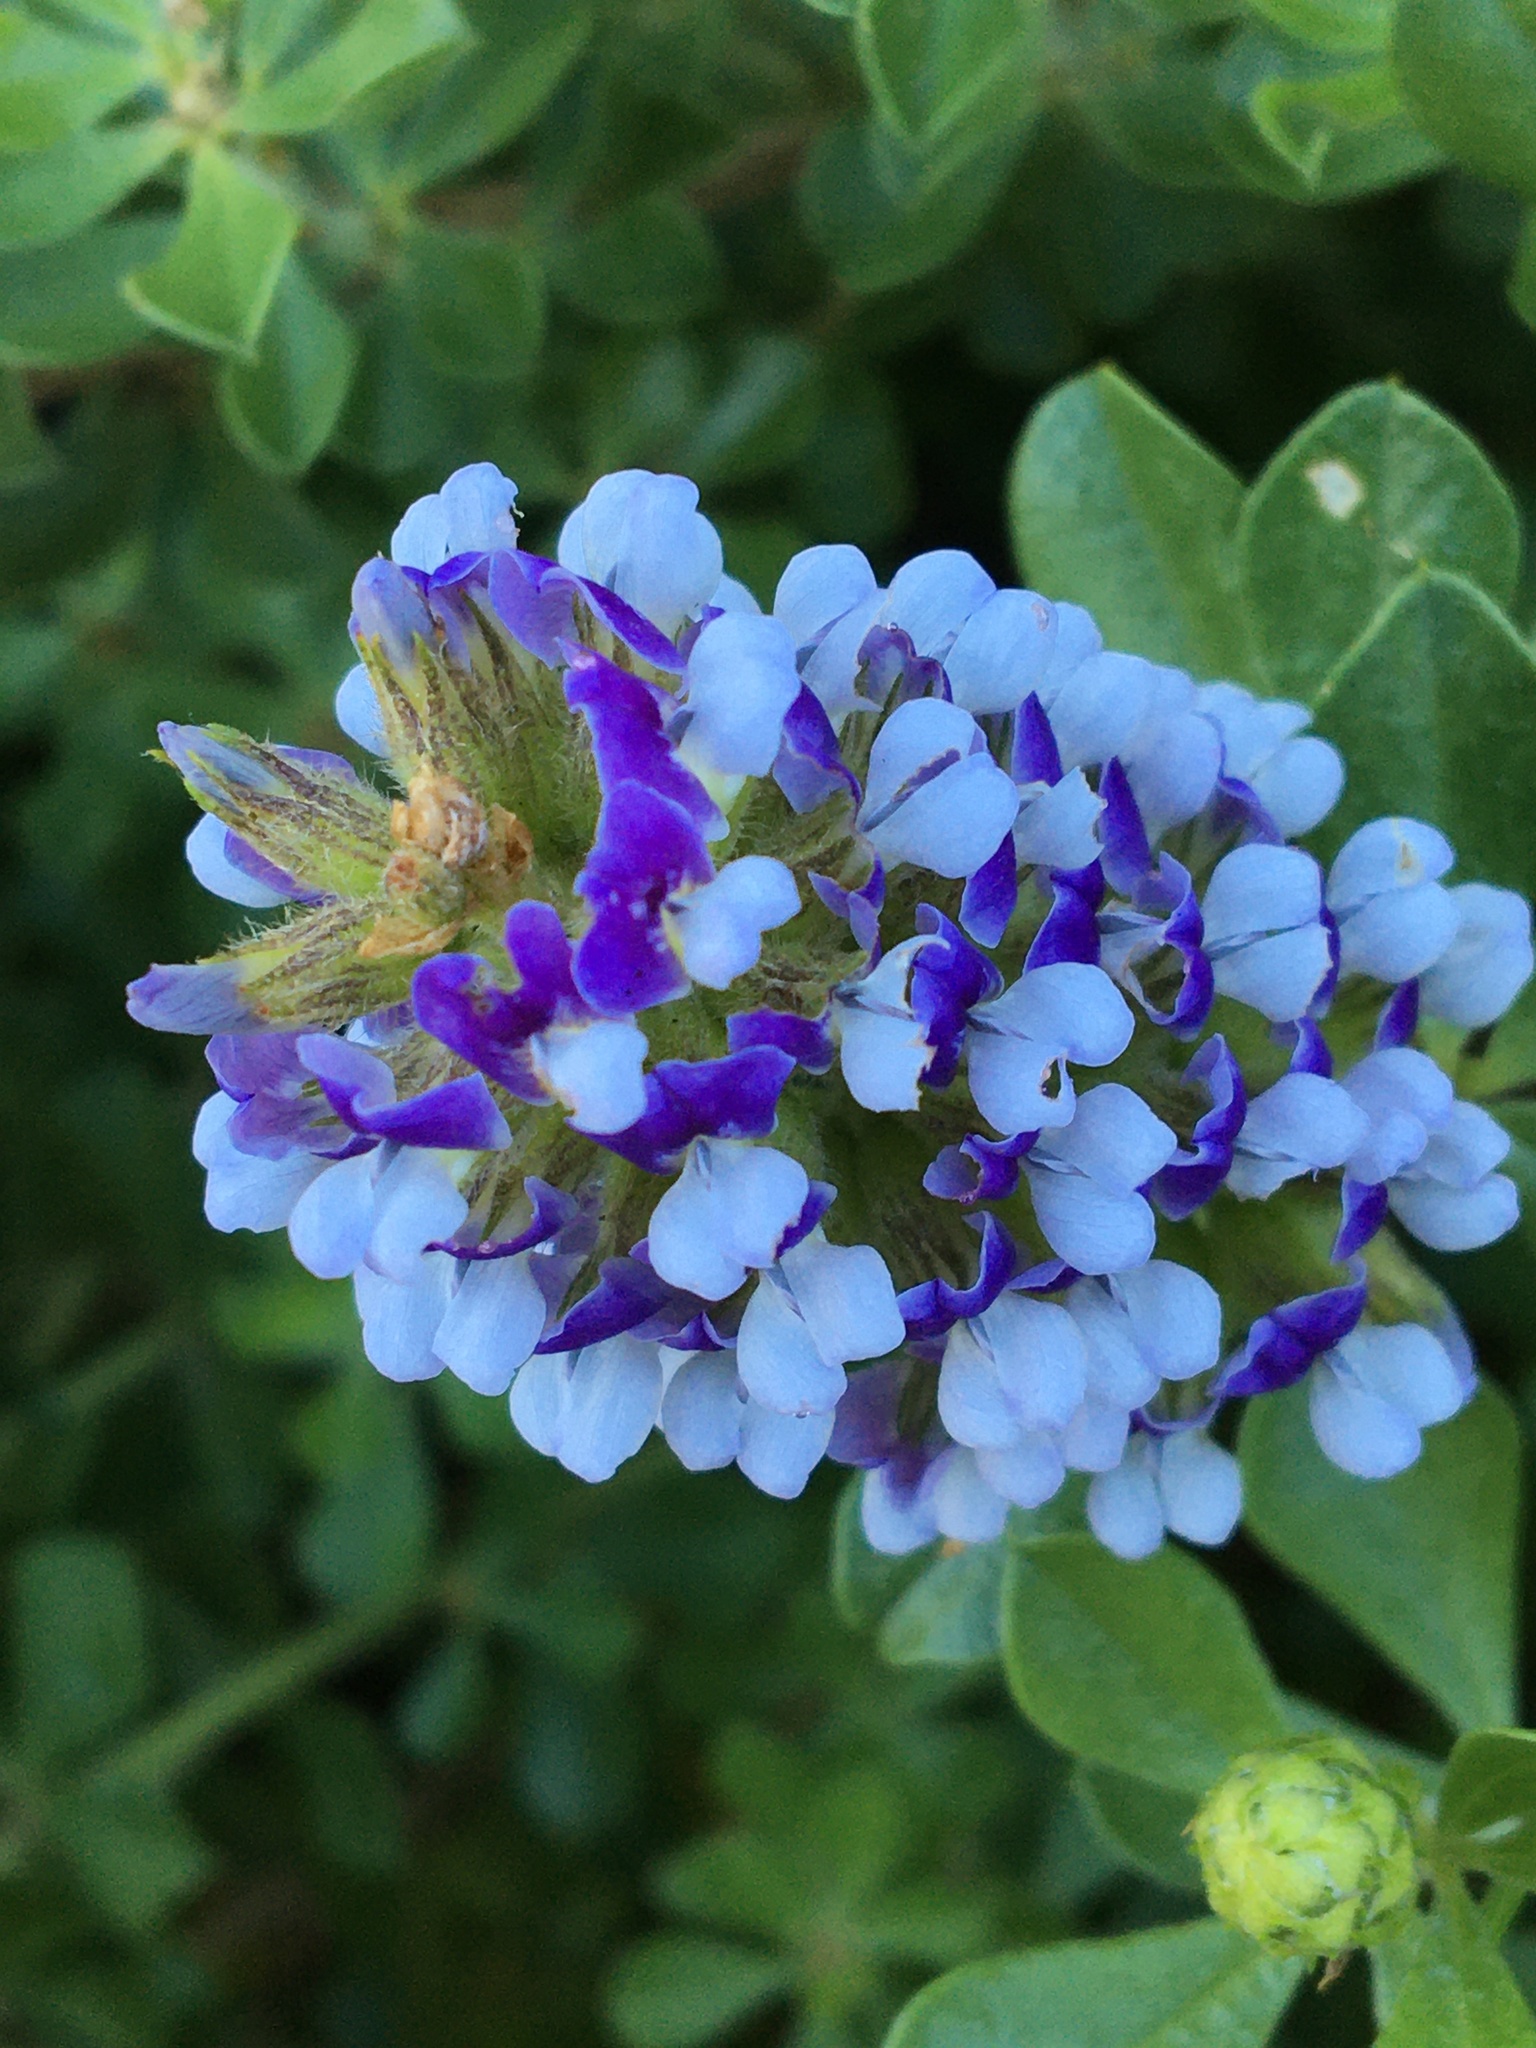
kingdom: Plantae
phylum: Tracheophyta
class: Magnoliopsida
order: Fabales
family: Fabaceae
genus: Psoralea
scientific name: Psoralea bracteolata
